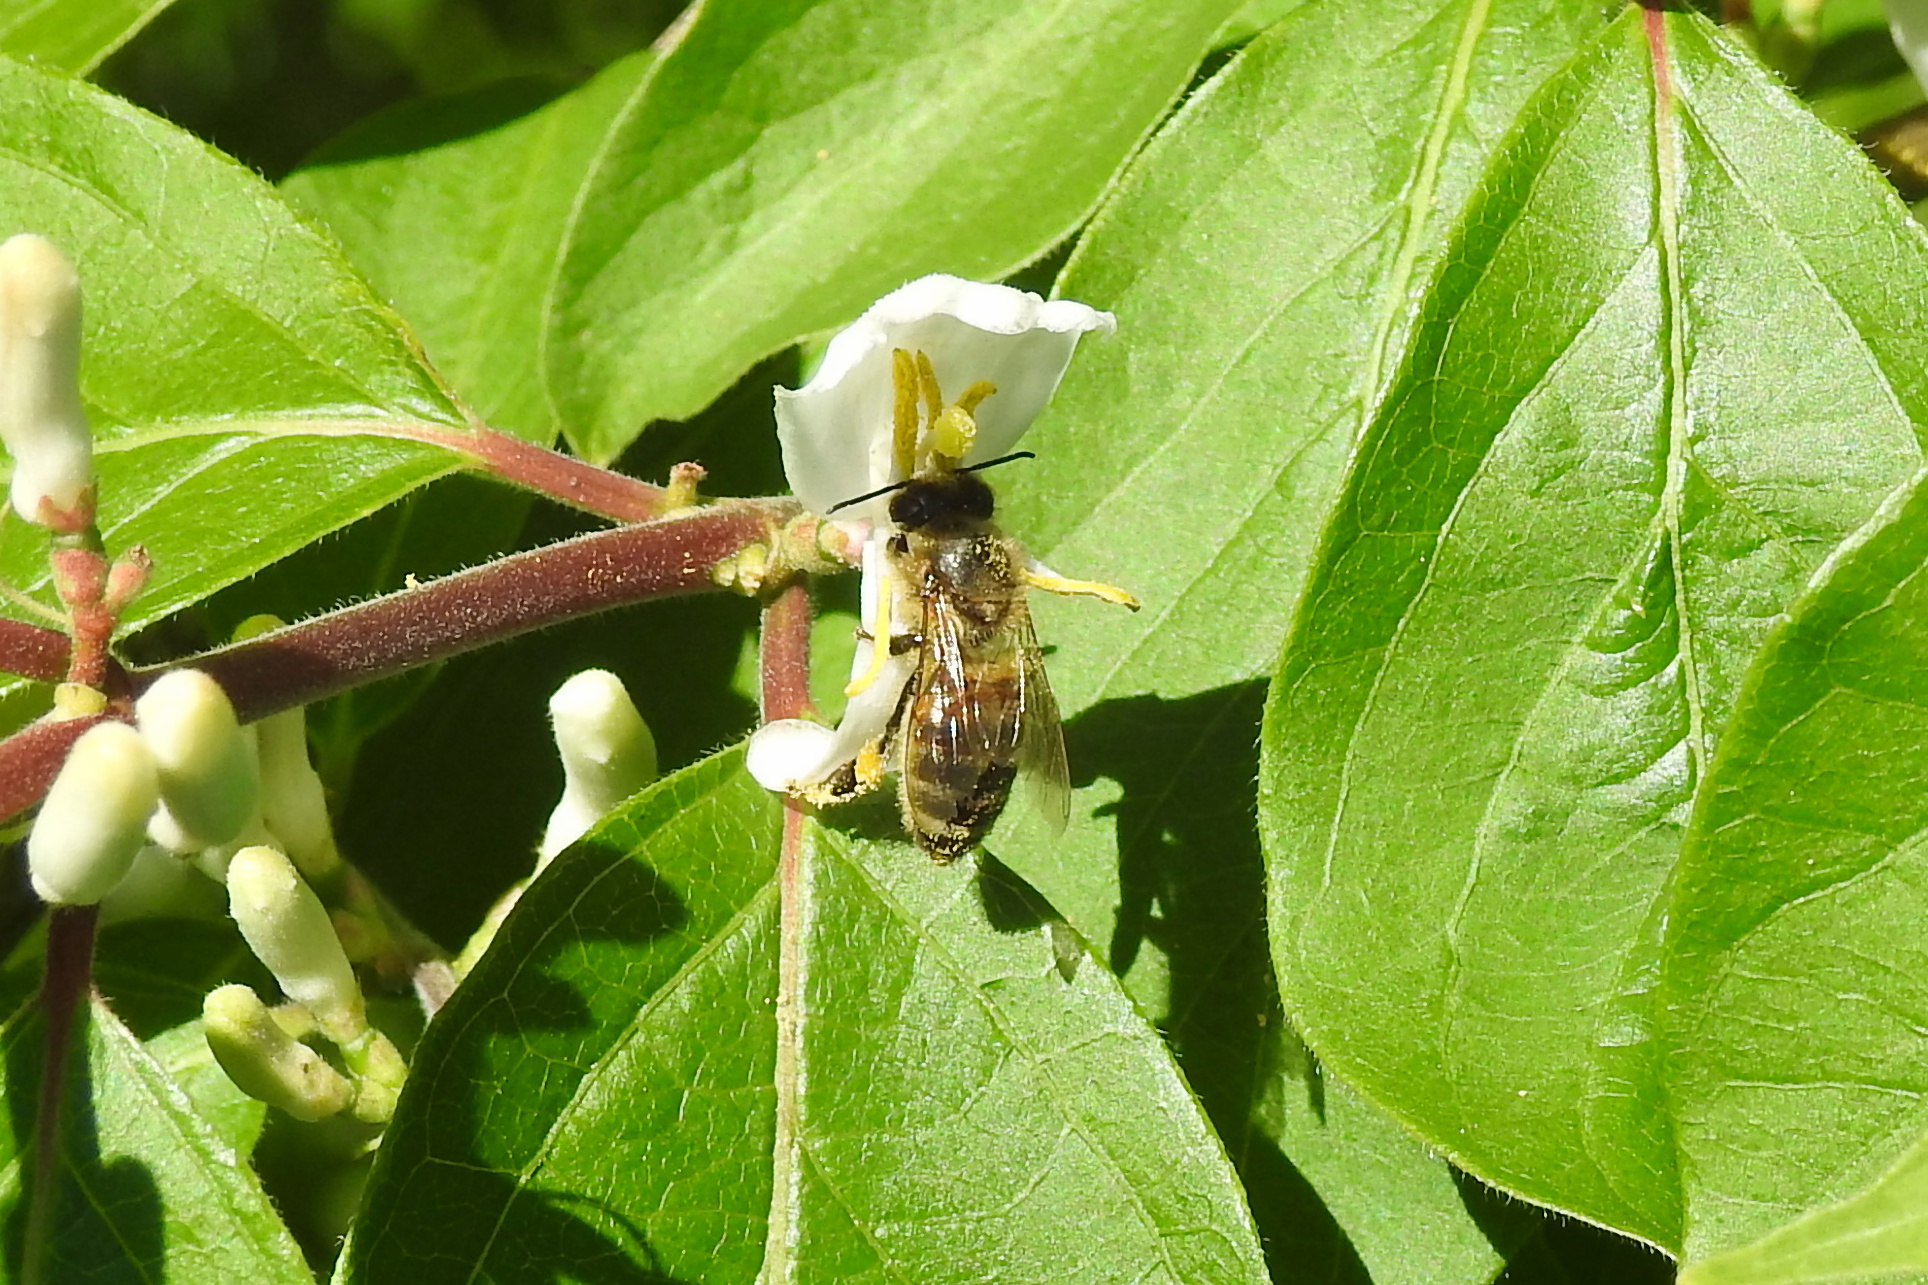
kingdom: Animalia
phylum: Arthropoda
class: Insecta
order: Hymenoptera
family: Apidae
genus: Apis
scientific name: Apis mellifera
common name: Honey bee
